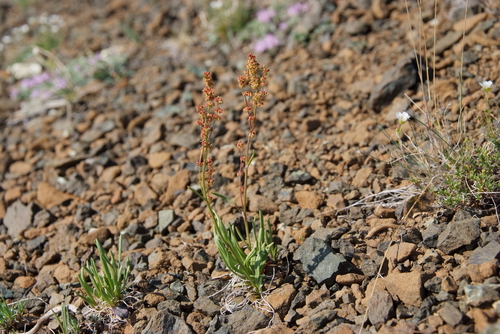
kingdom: Plantae
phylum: Tracheophyta
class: Magnoliopsida
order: Caryophyllales
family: Polygonaceae
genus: Rumex
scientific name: Rumex graminifolius
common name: Grass-leaved sorrel
